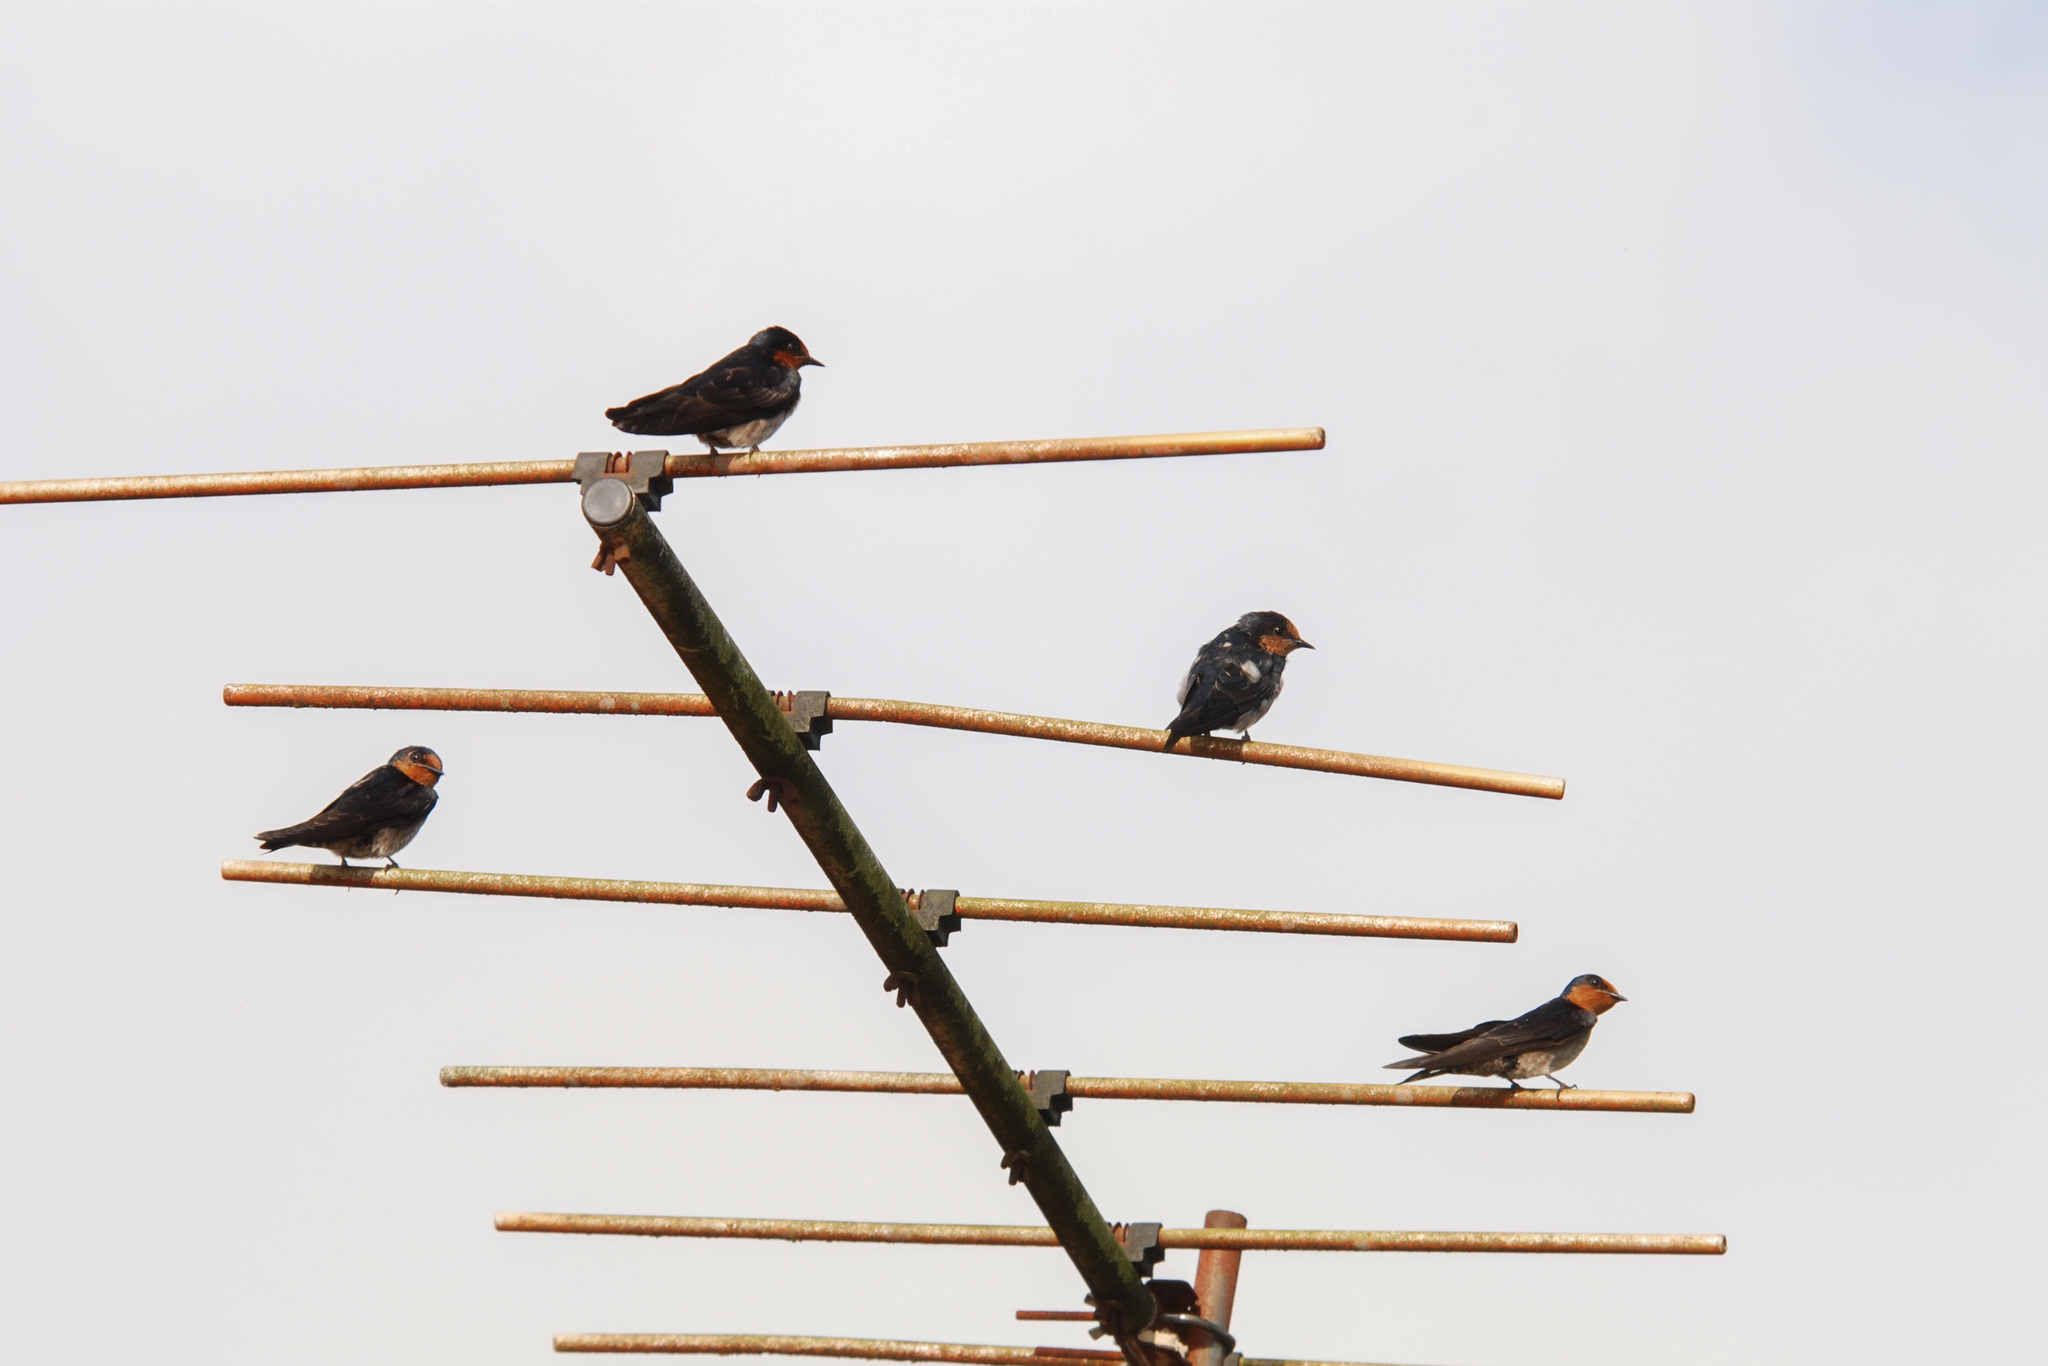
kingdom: Animalia
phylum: Chordata
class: Aves
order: Passeriformes
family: Hirundinidae
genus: Hirundo
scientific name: Hirundo tahitica
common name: Pacific swallow
